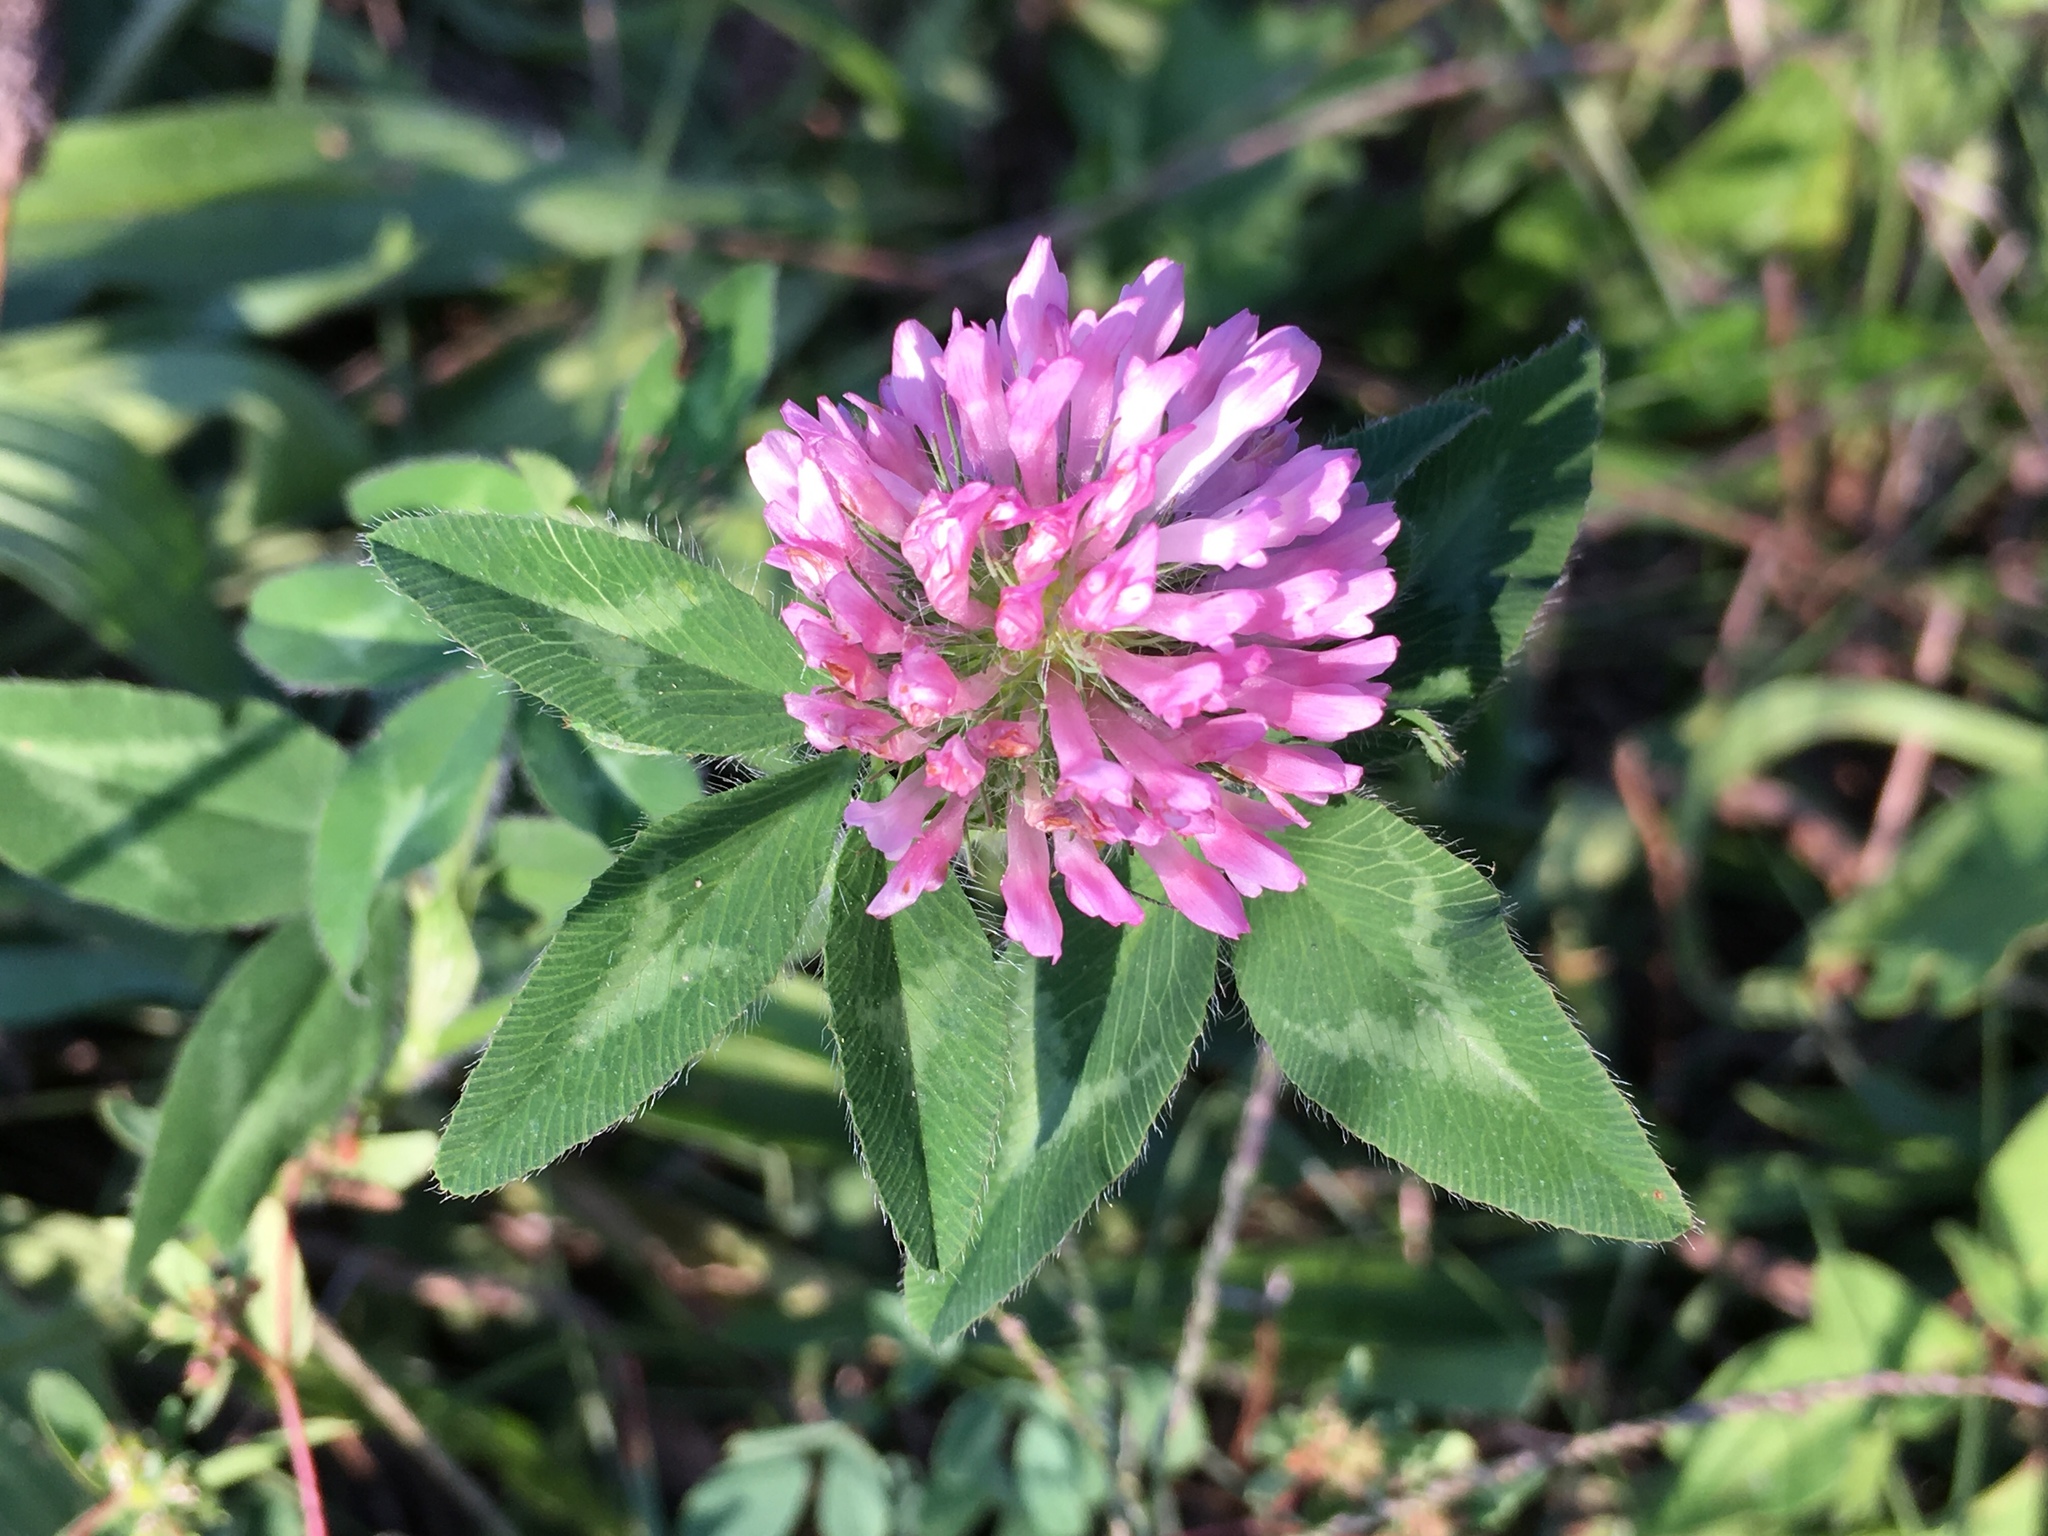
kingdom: Plantae
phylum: Tracheophyta
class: Magnoliopsida
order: Fabales
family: Fabaceae
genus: Trifolium
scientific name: Trifolium pratense
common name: Red clover
